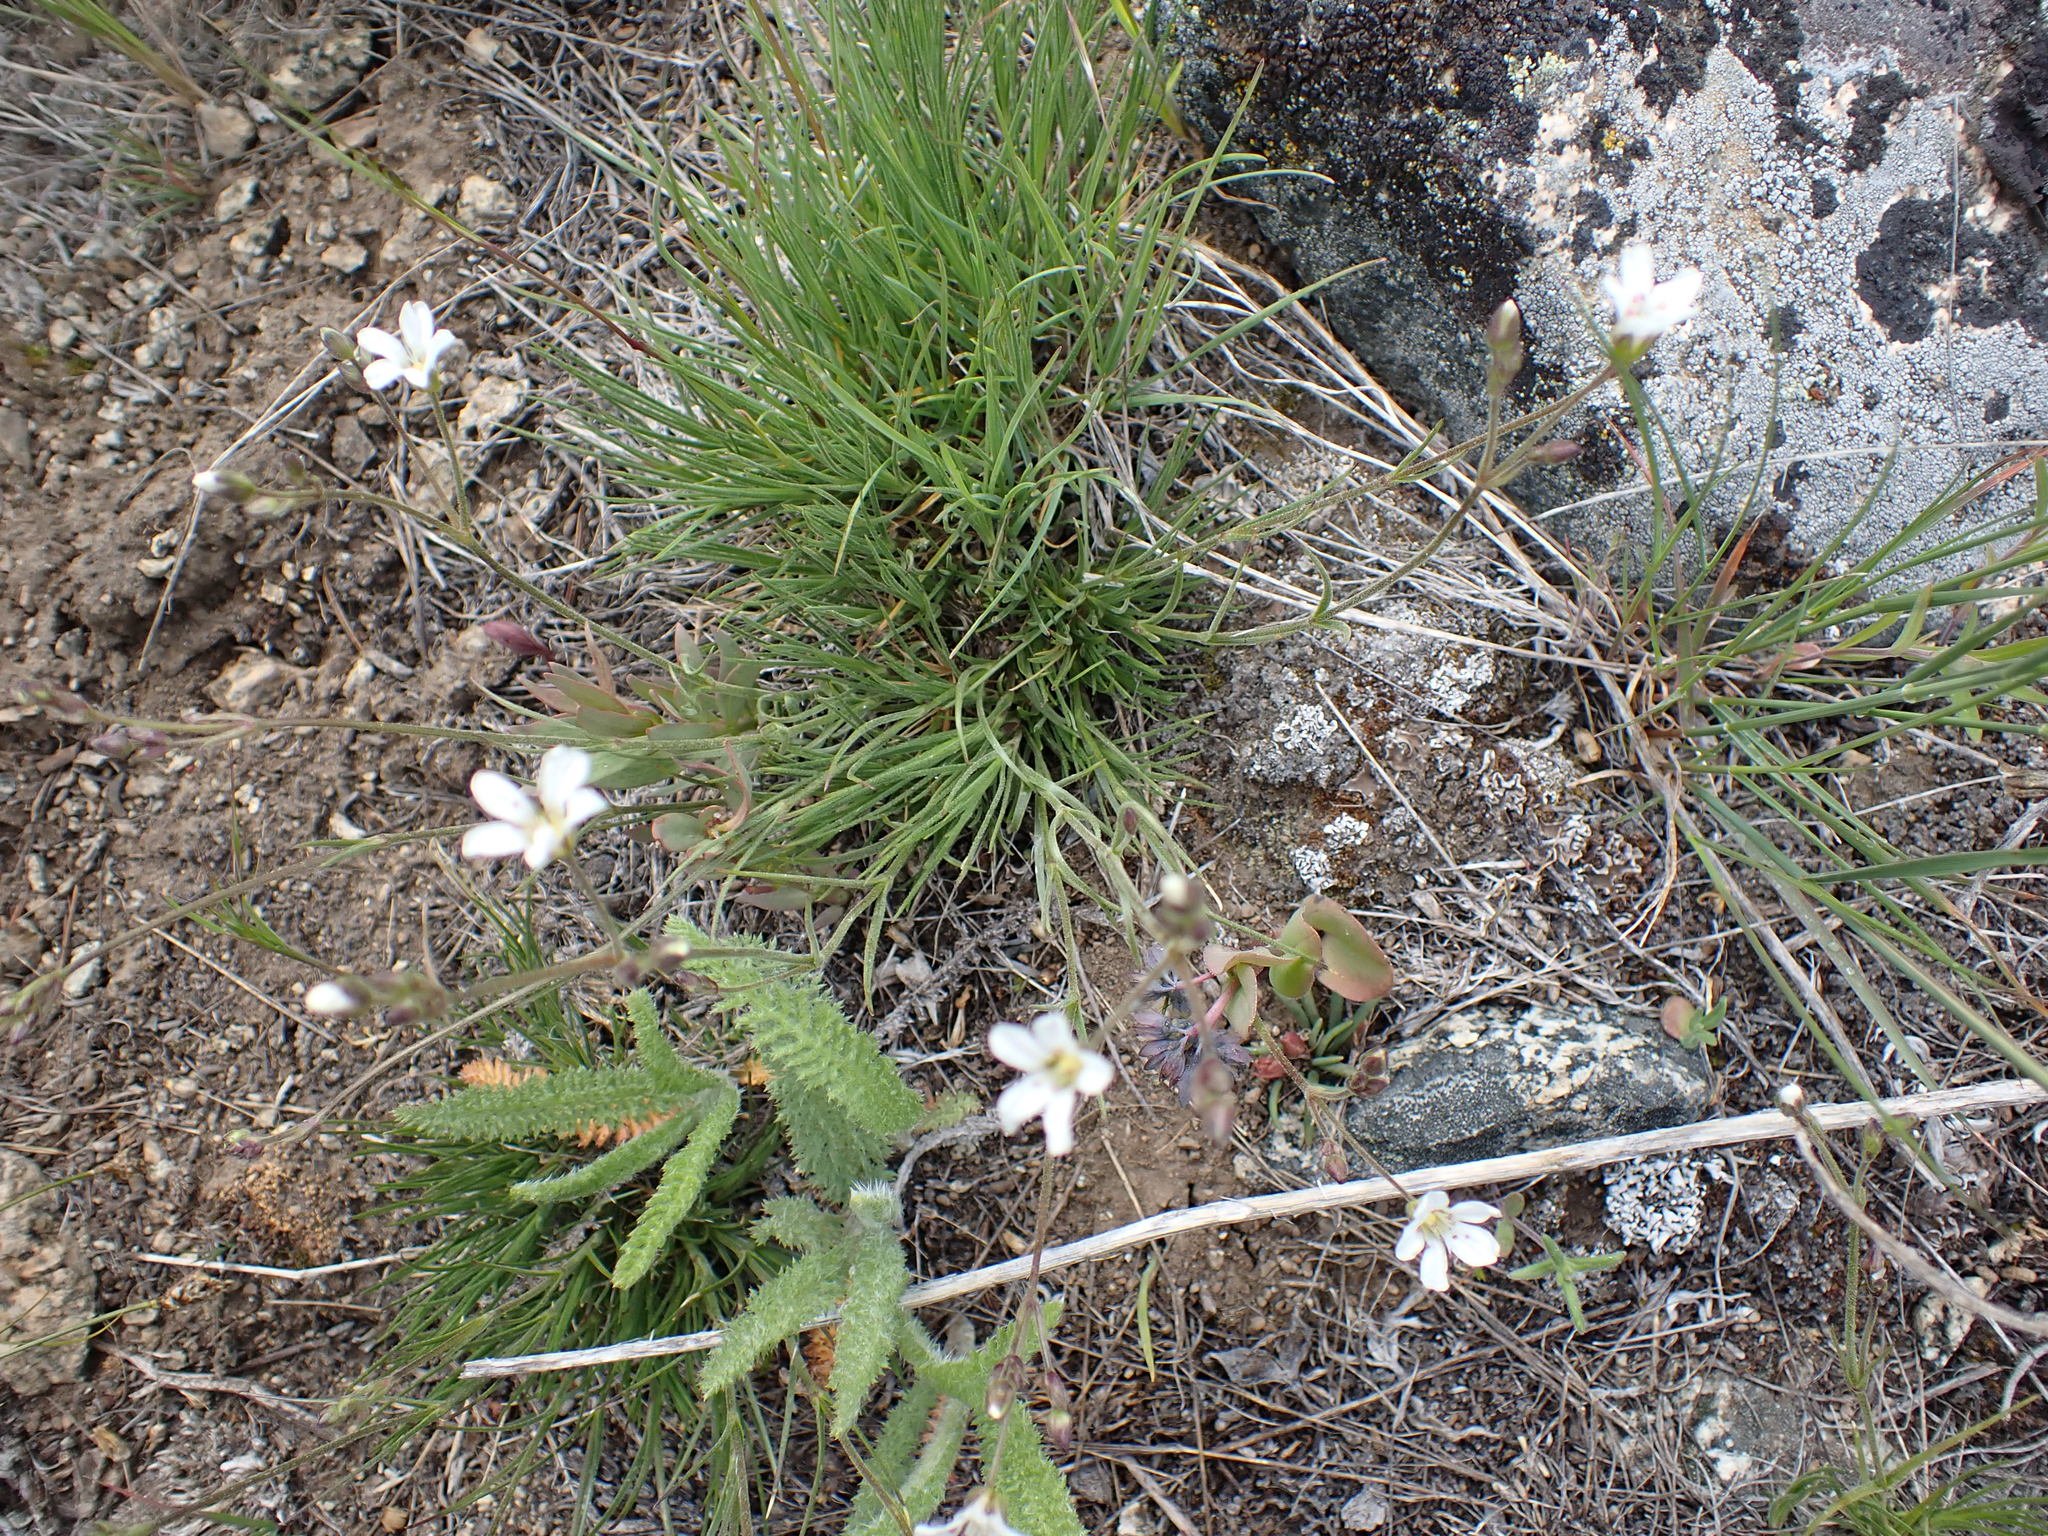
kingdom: Plantae
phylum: Tracheophyta
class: Magnoliopsida
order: Caryophyllales
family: Caryophyllaceae
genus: Eremogone
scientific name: Eremogone capillaris
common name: Slender mountain sandwort
